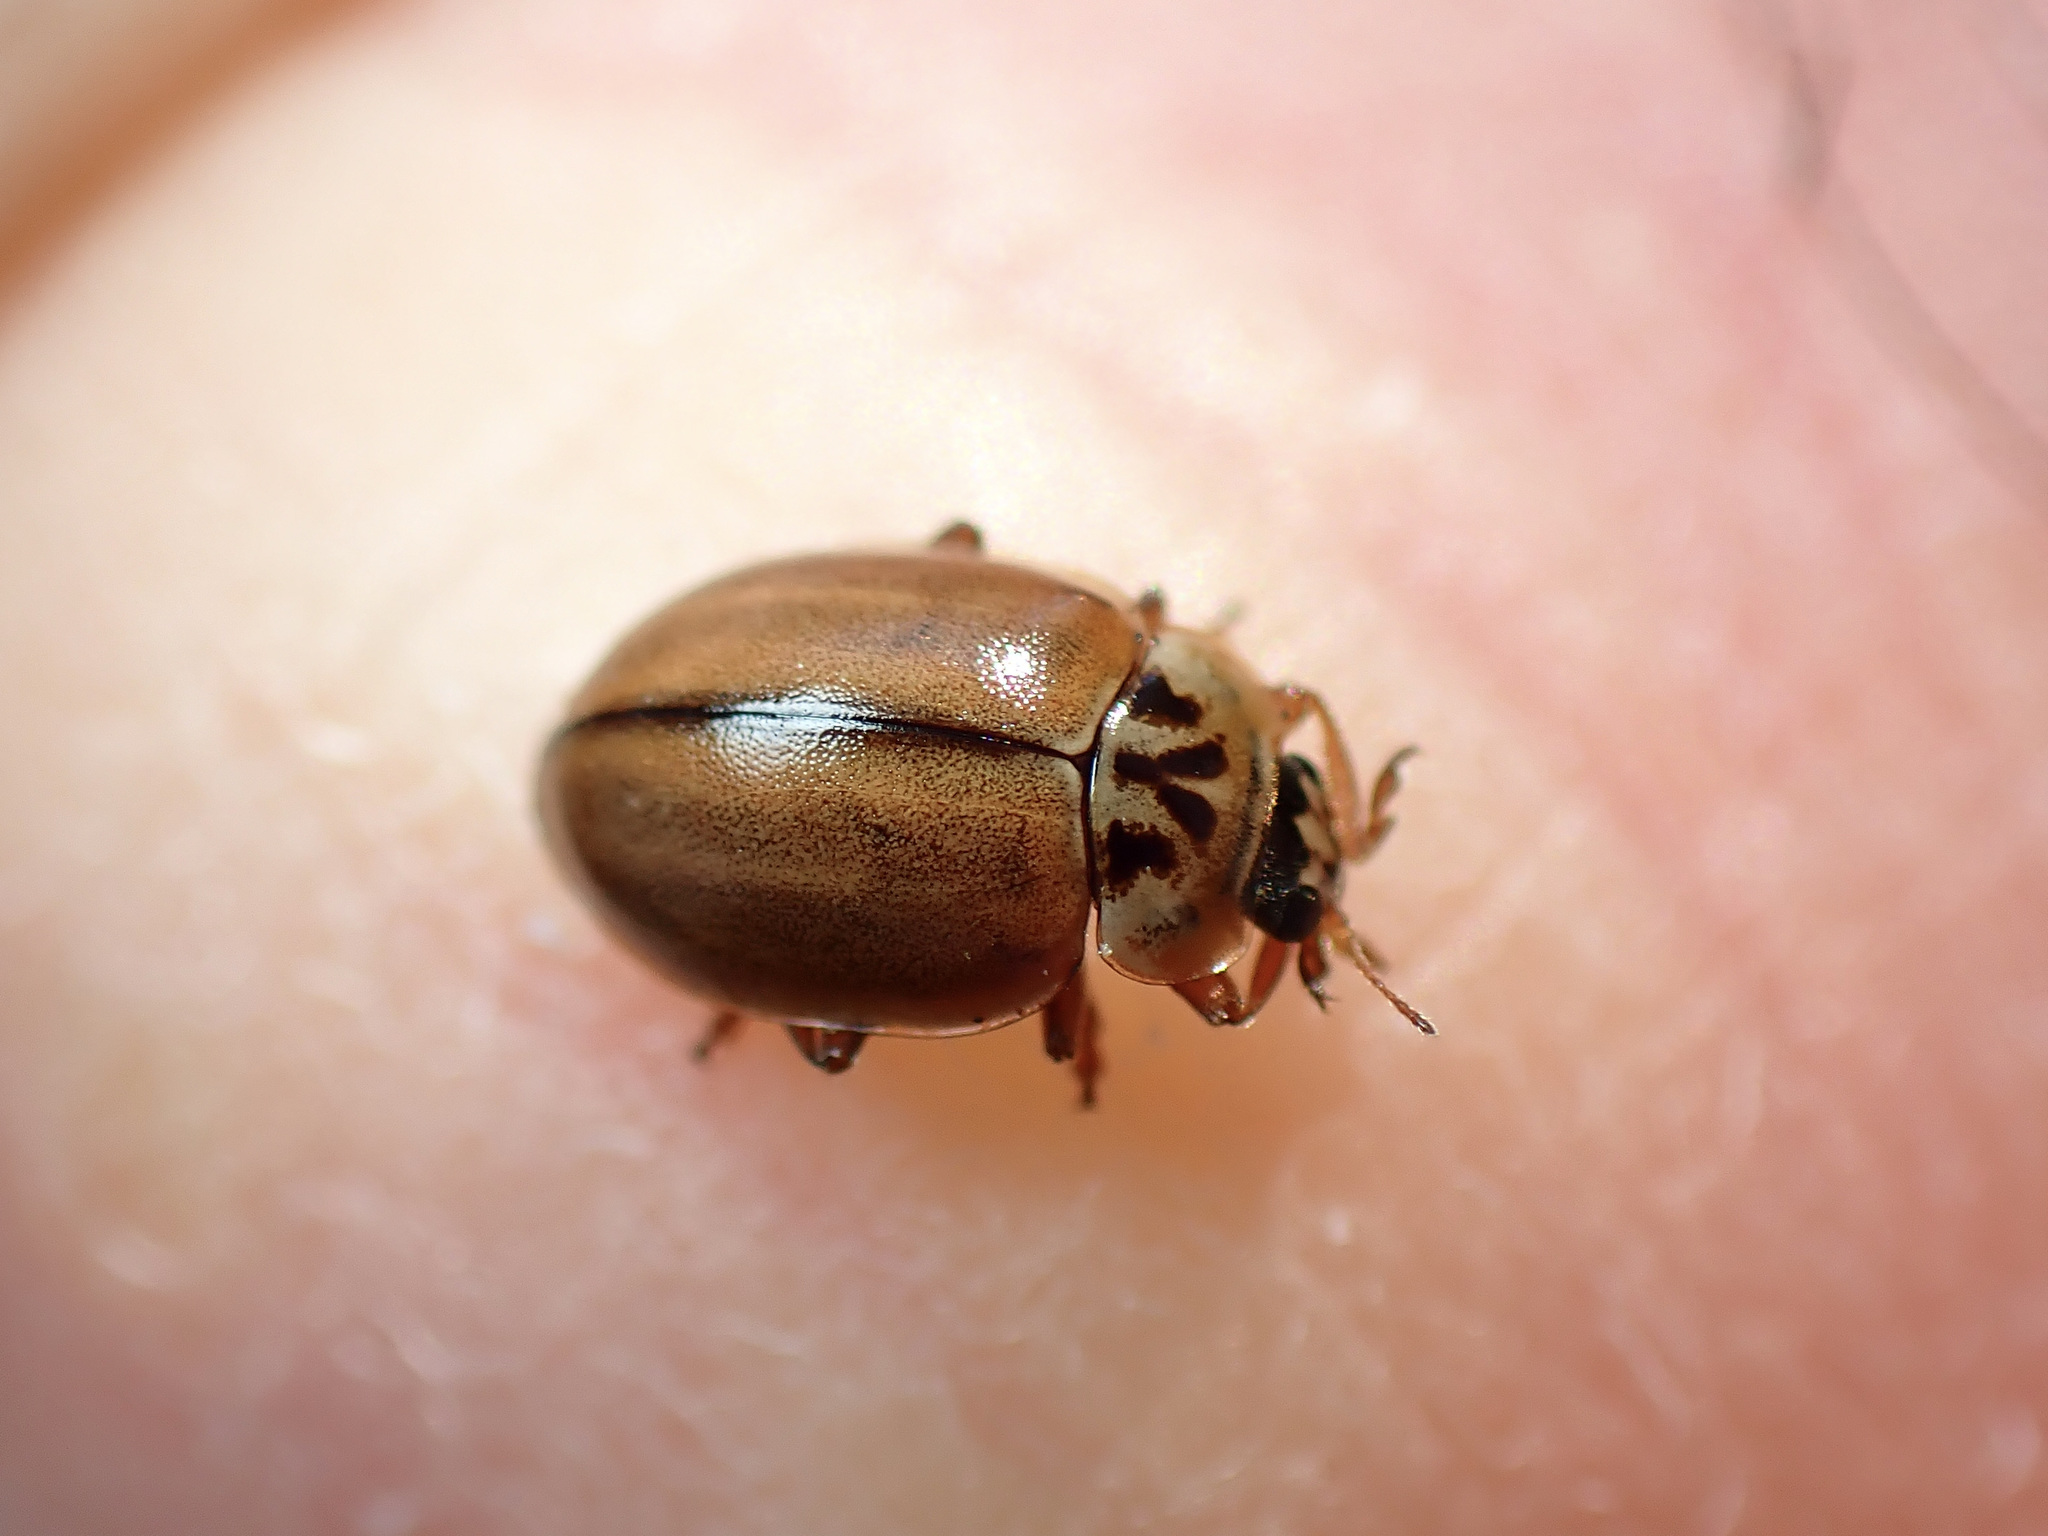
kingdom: Animalia
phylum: Arthropoda
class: Insecta
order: Coleoptera
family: Coccinellidae
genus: Aphidecta
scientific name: Aphidecta obliterata
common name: Larch ladybird
